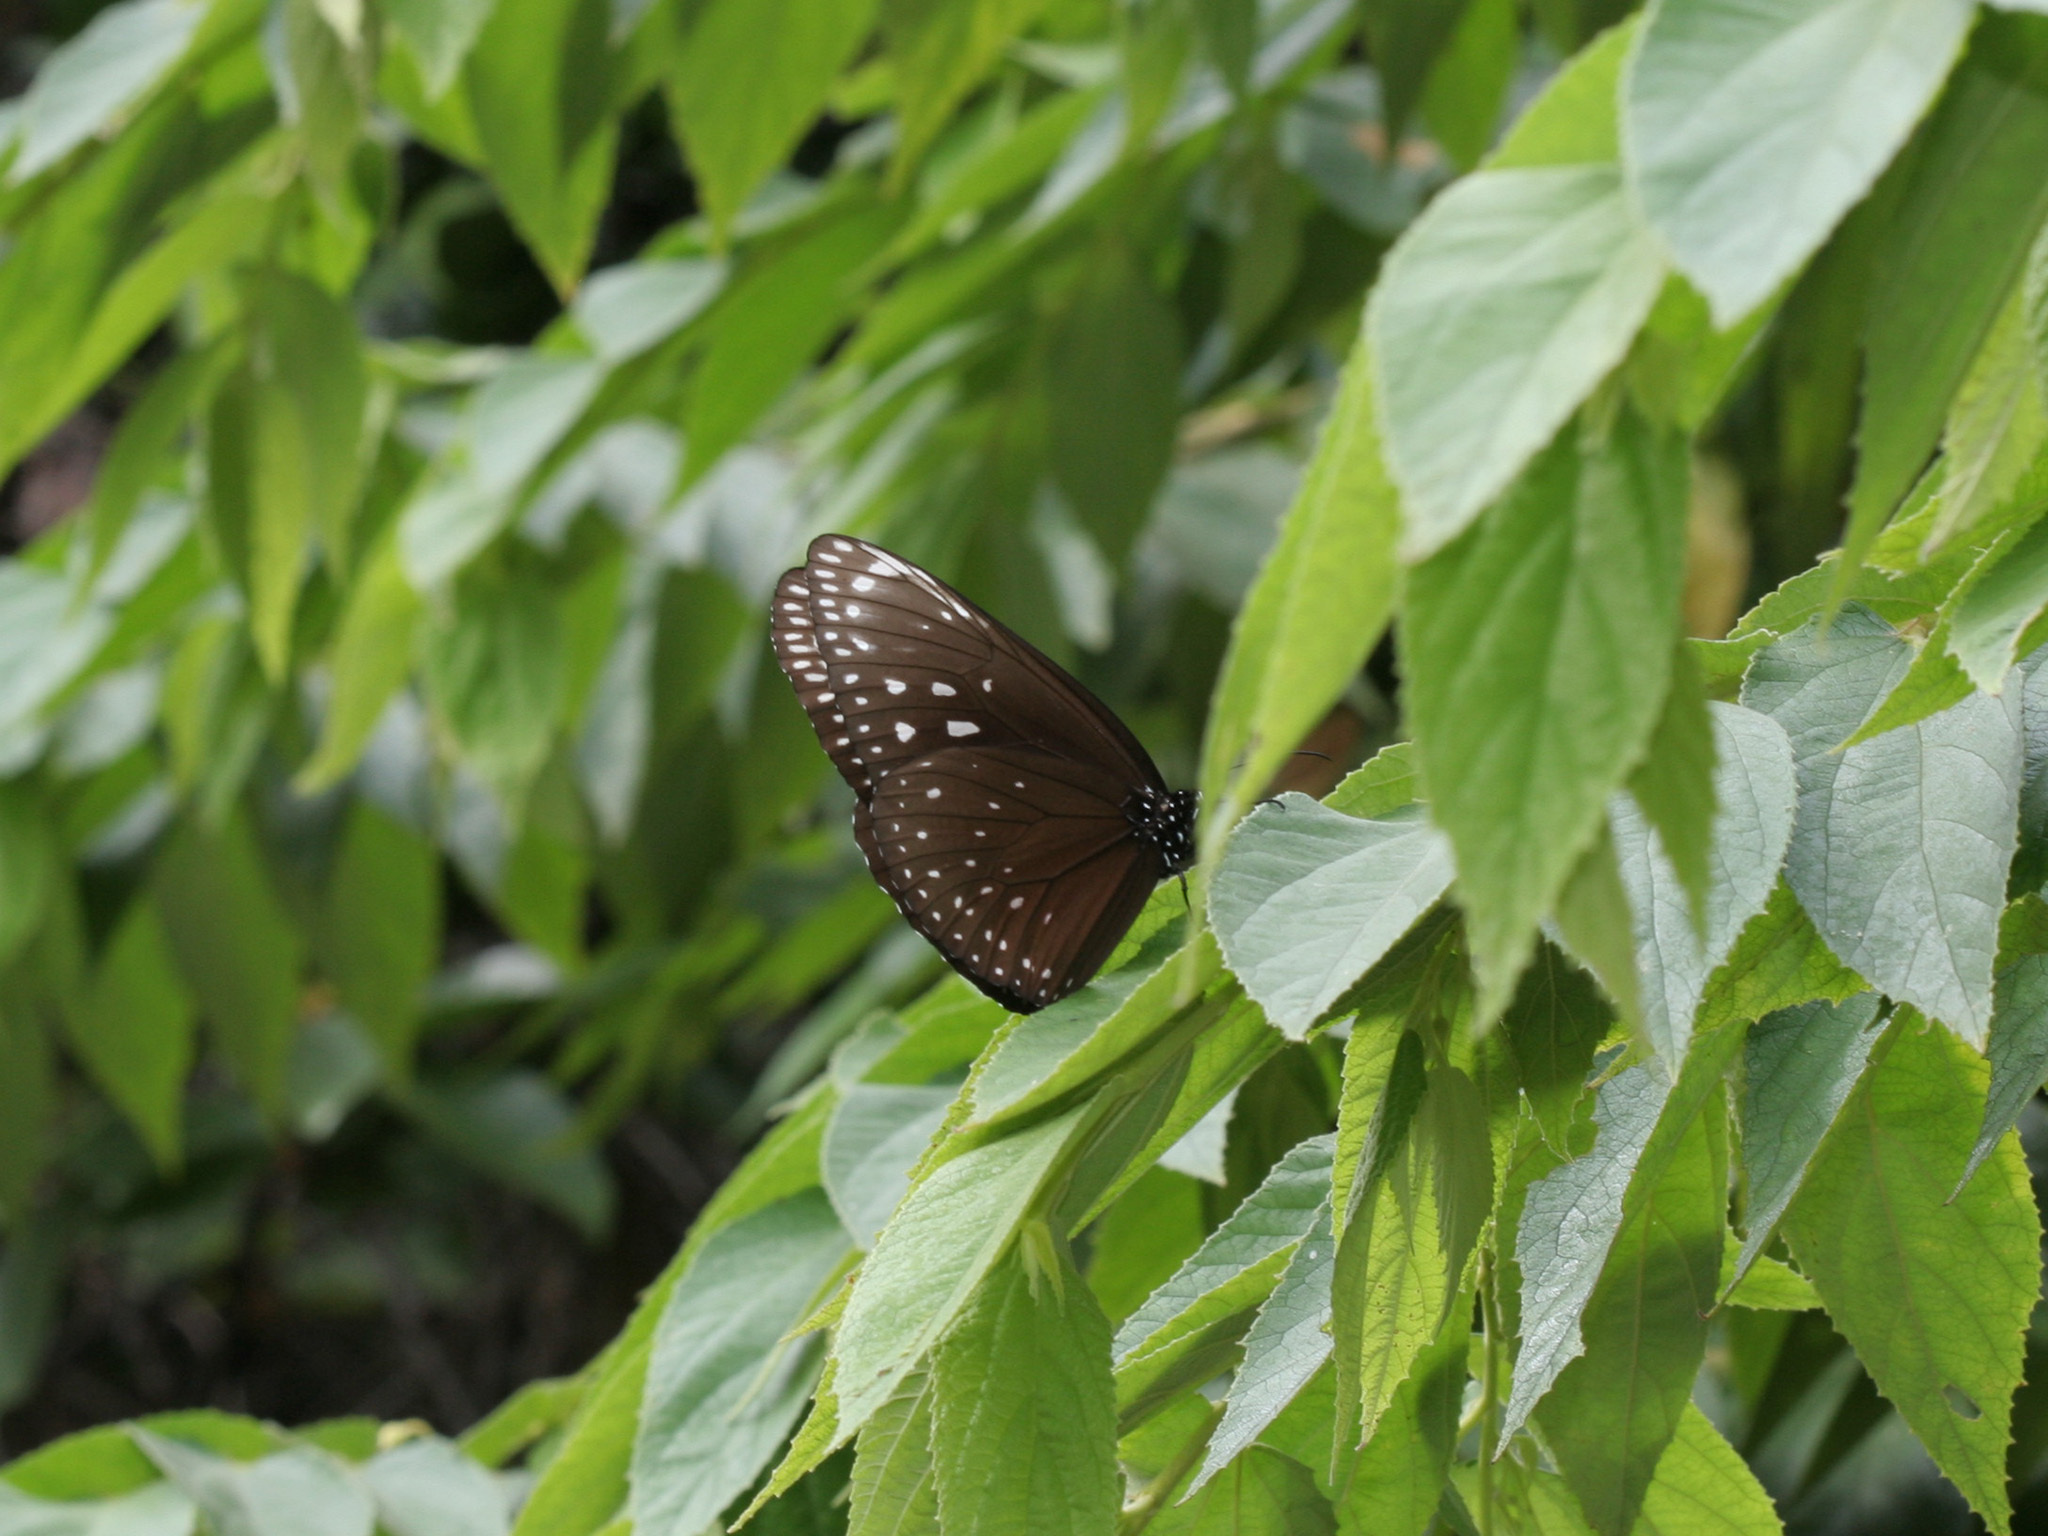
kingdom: Animalia
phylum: Arthropoda
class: Insecta
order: Lepidoptera
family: Nymphalidae
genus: Euploea
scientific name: Euploea phaenareta
